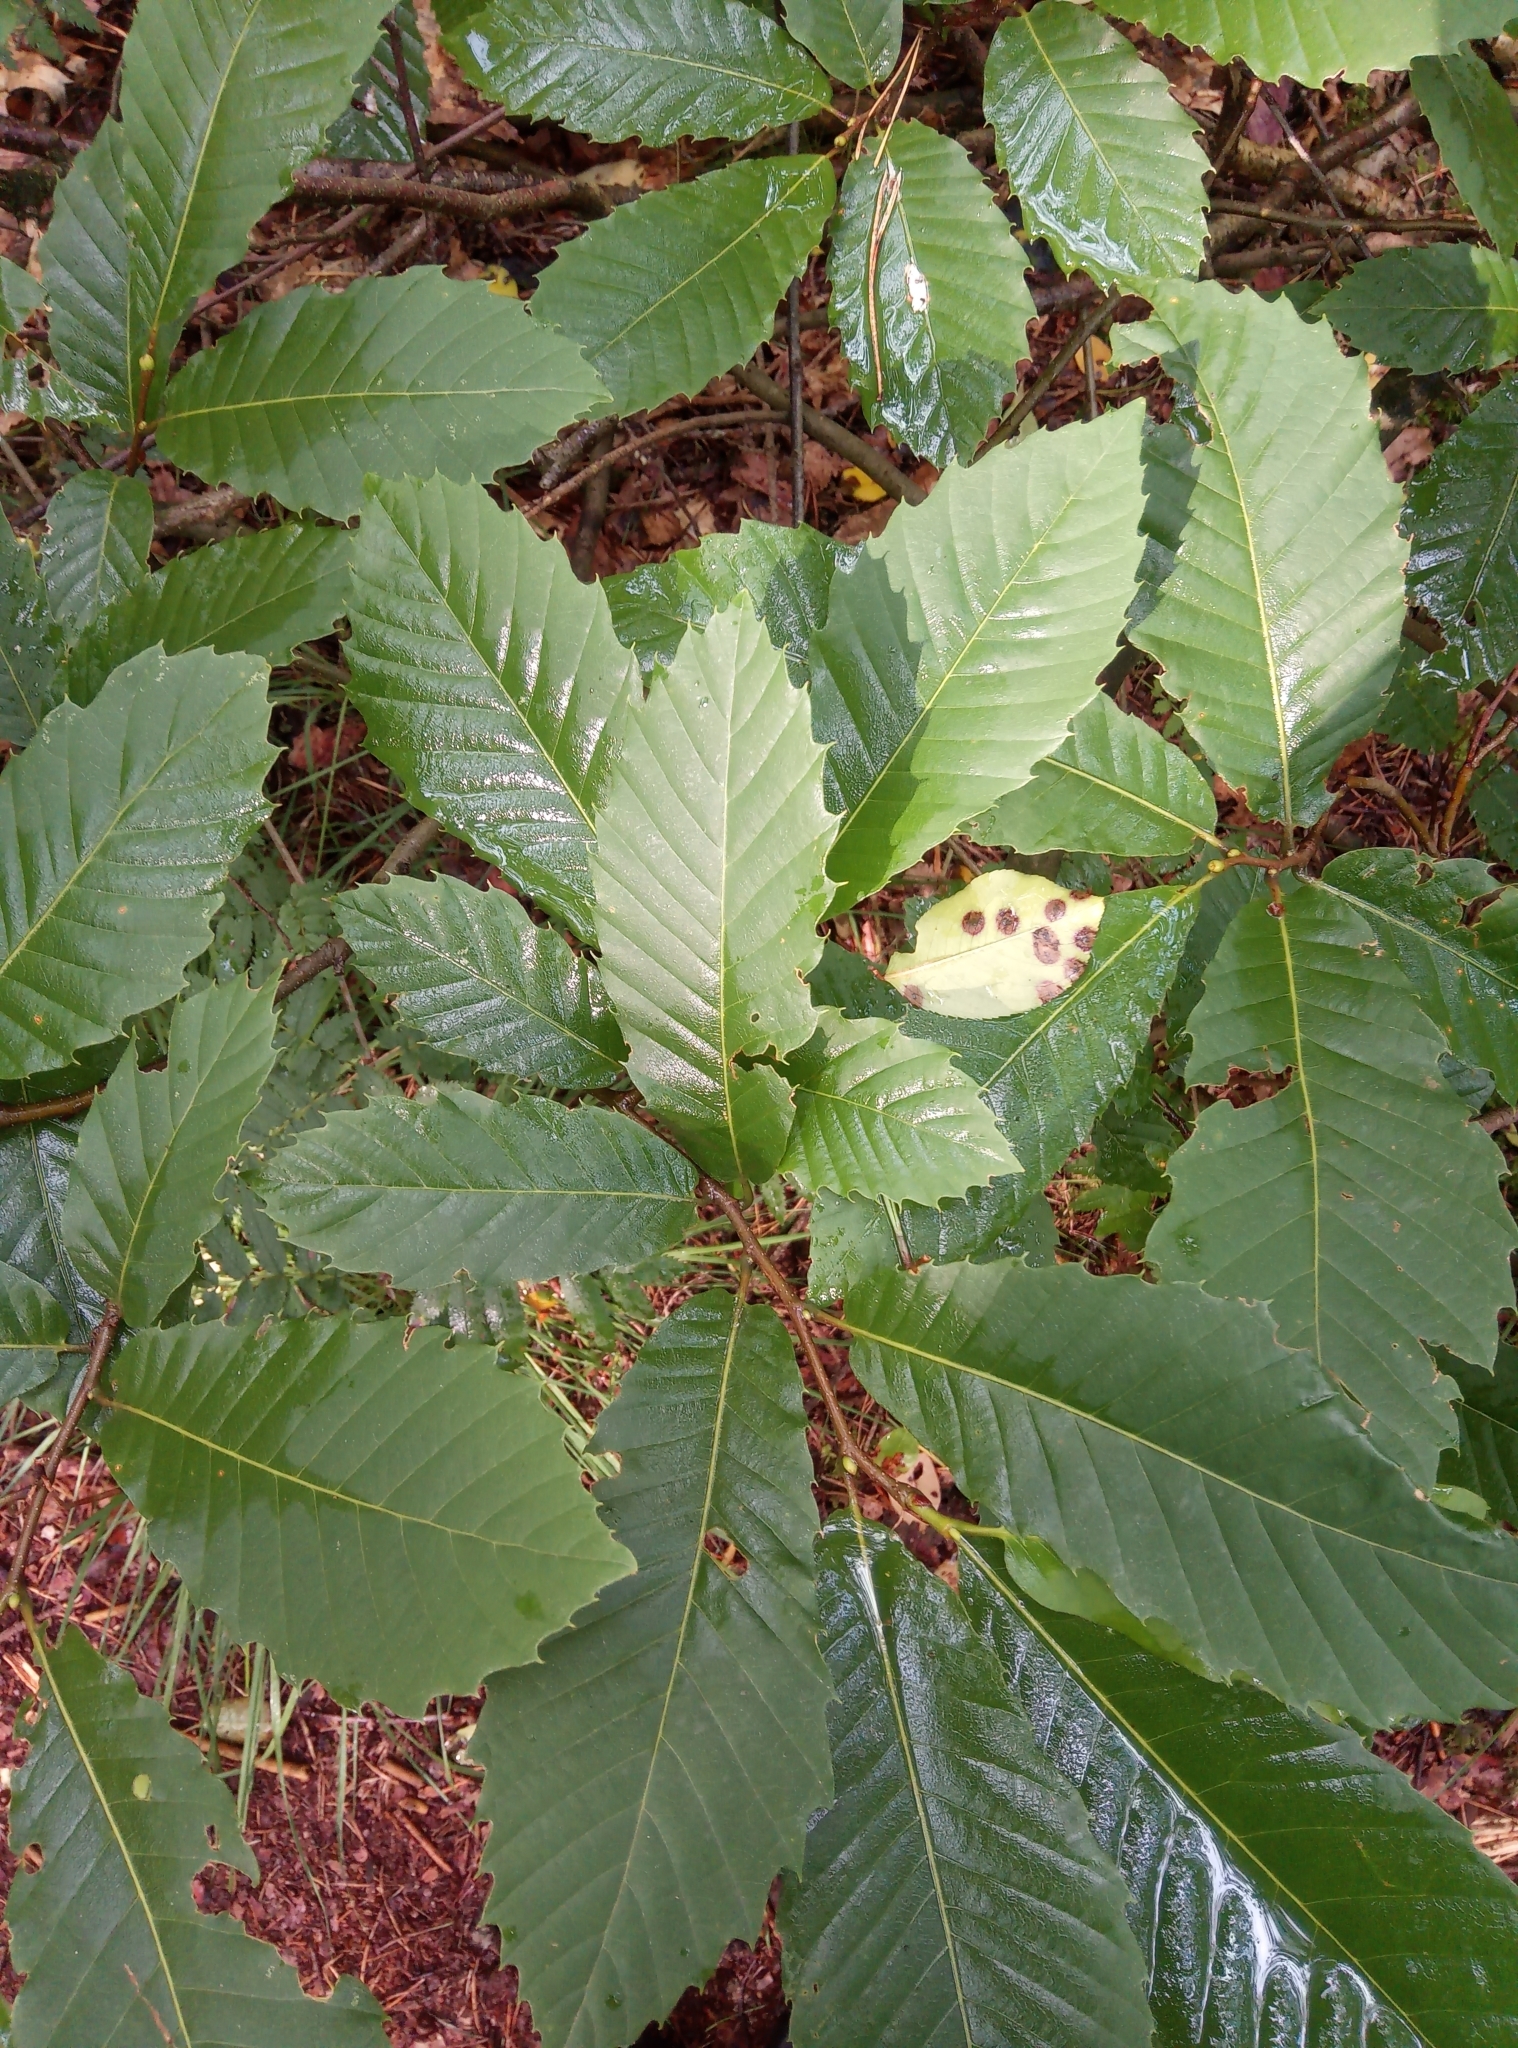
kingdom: Plantae
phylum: Tracheophyta
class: Magnoliopsida
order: Fagales
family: Fagaceae
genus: Castanea
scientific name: Castanea sativa
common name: Sweet chestnut
